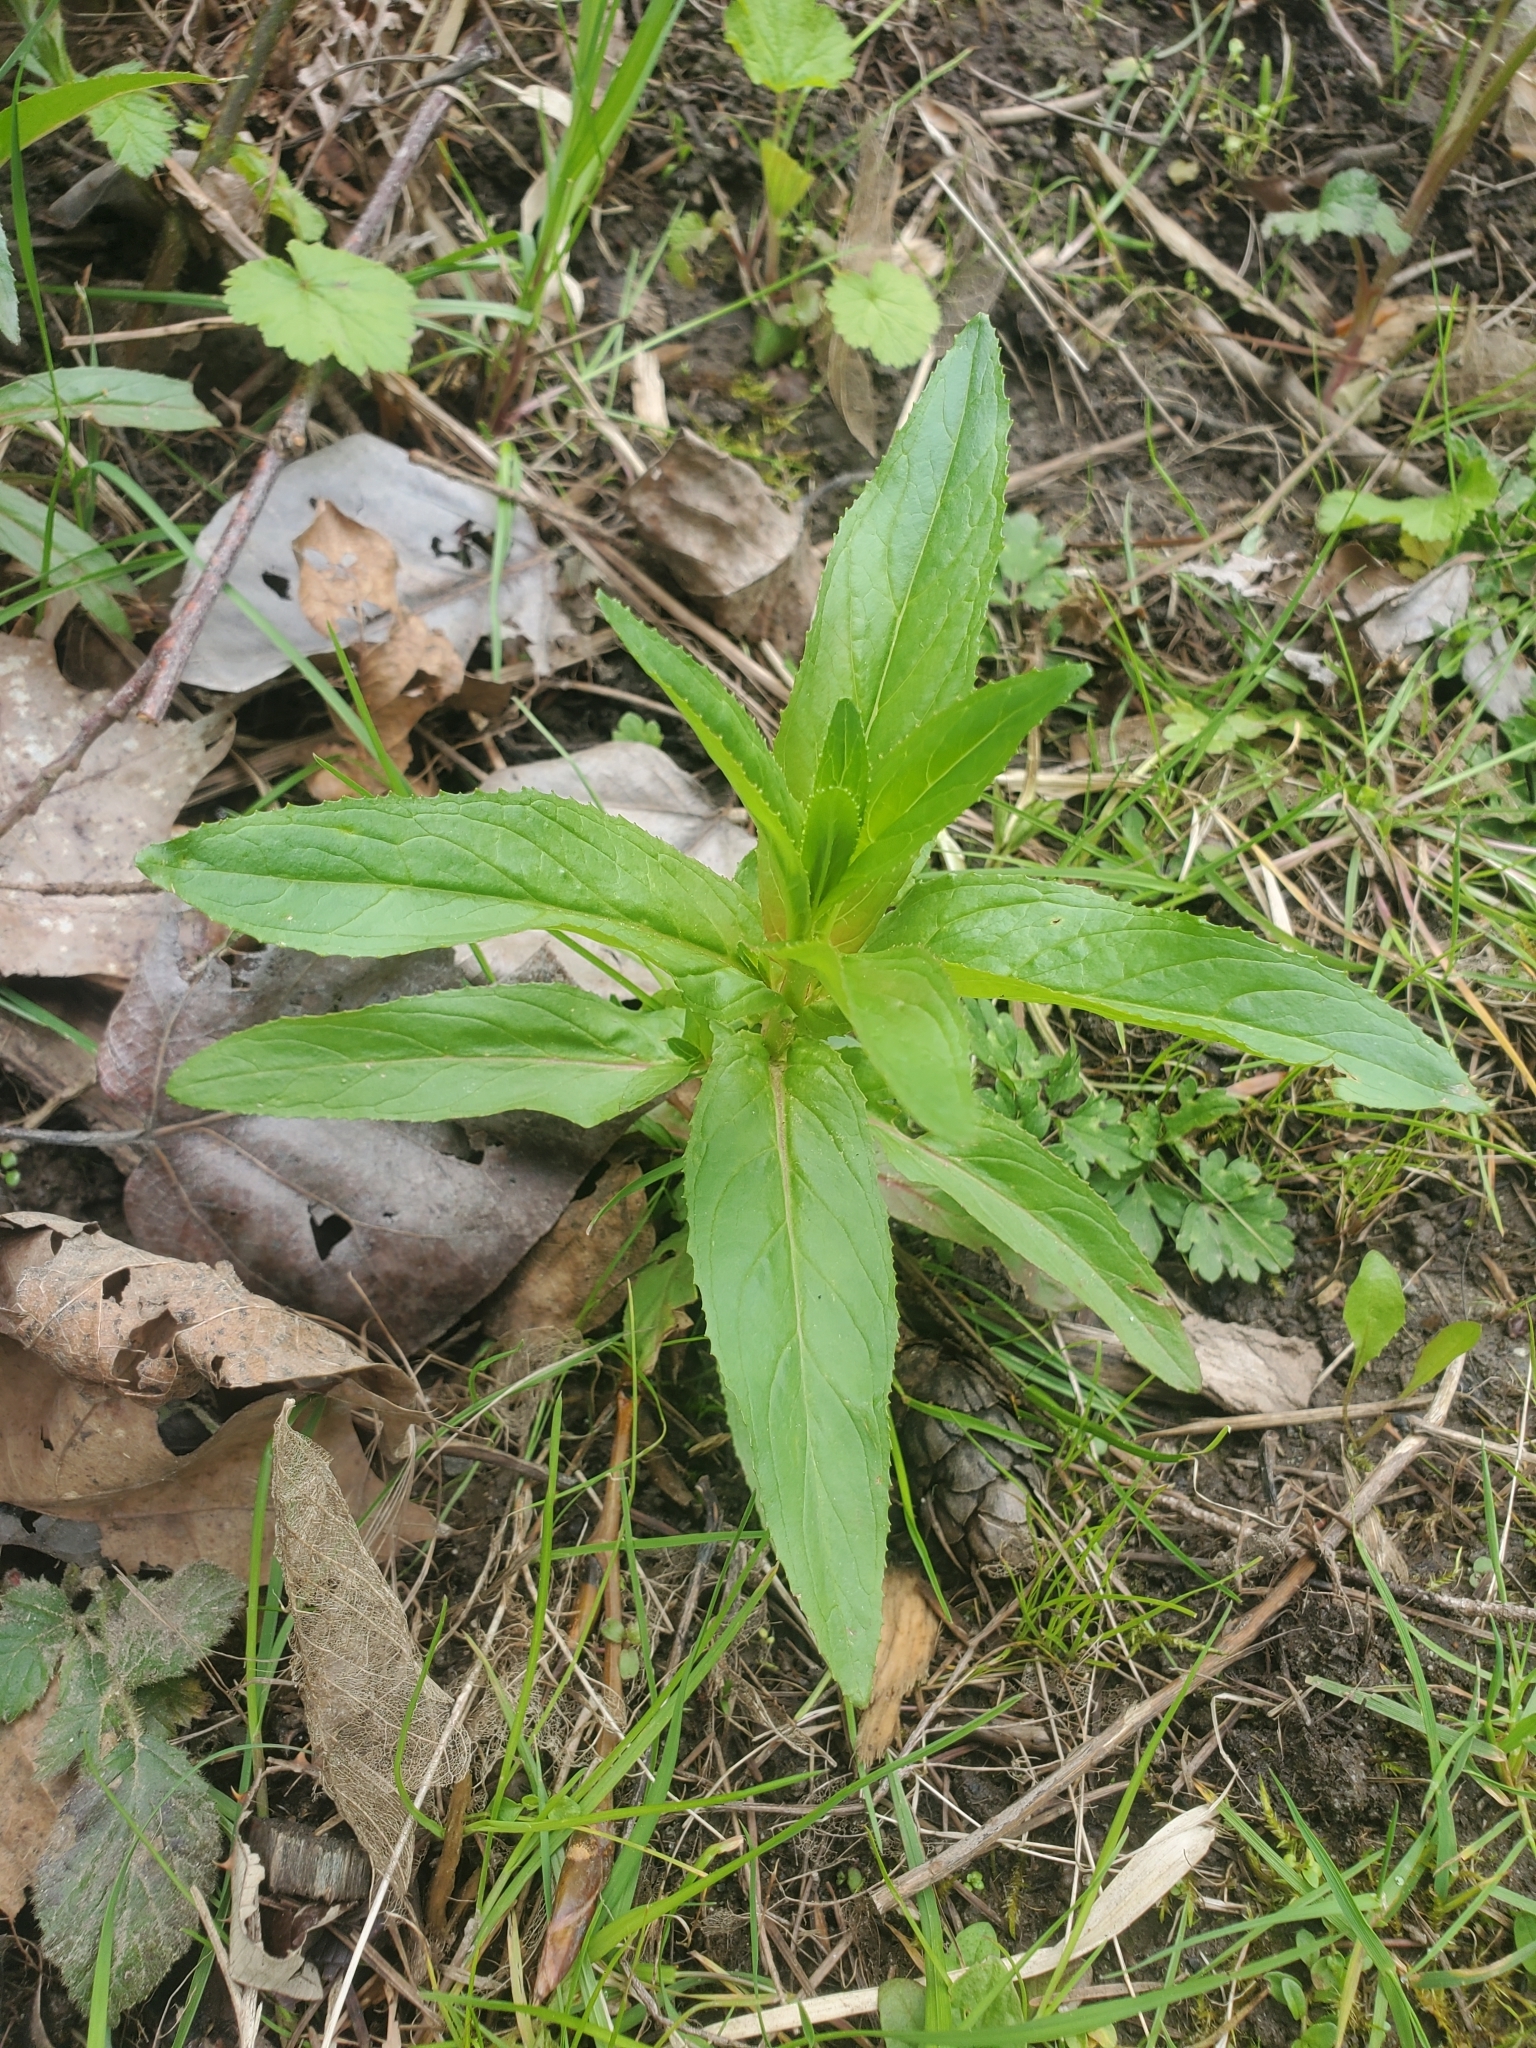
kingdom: Plantae
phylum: Tracheophyta
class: Magnoliopsida
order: Myrtales
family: Onagraceae
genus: Epilobium
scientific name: Epilobium ciliatum
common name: American willowherb
